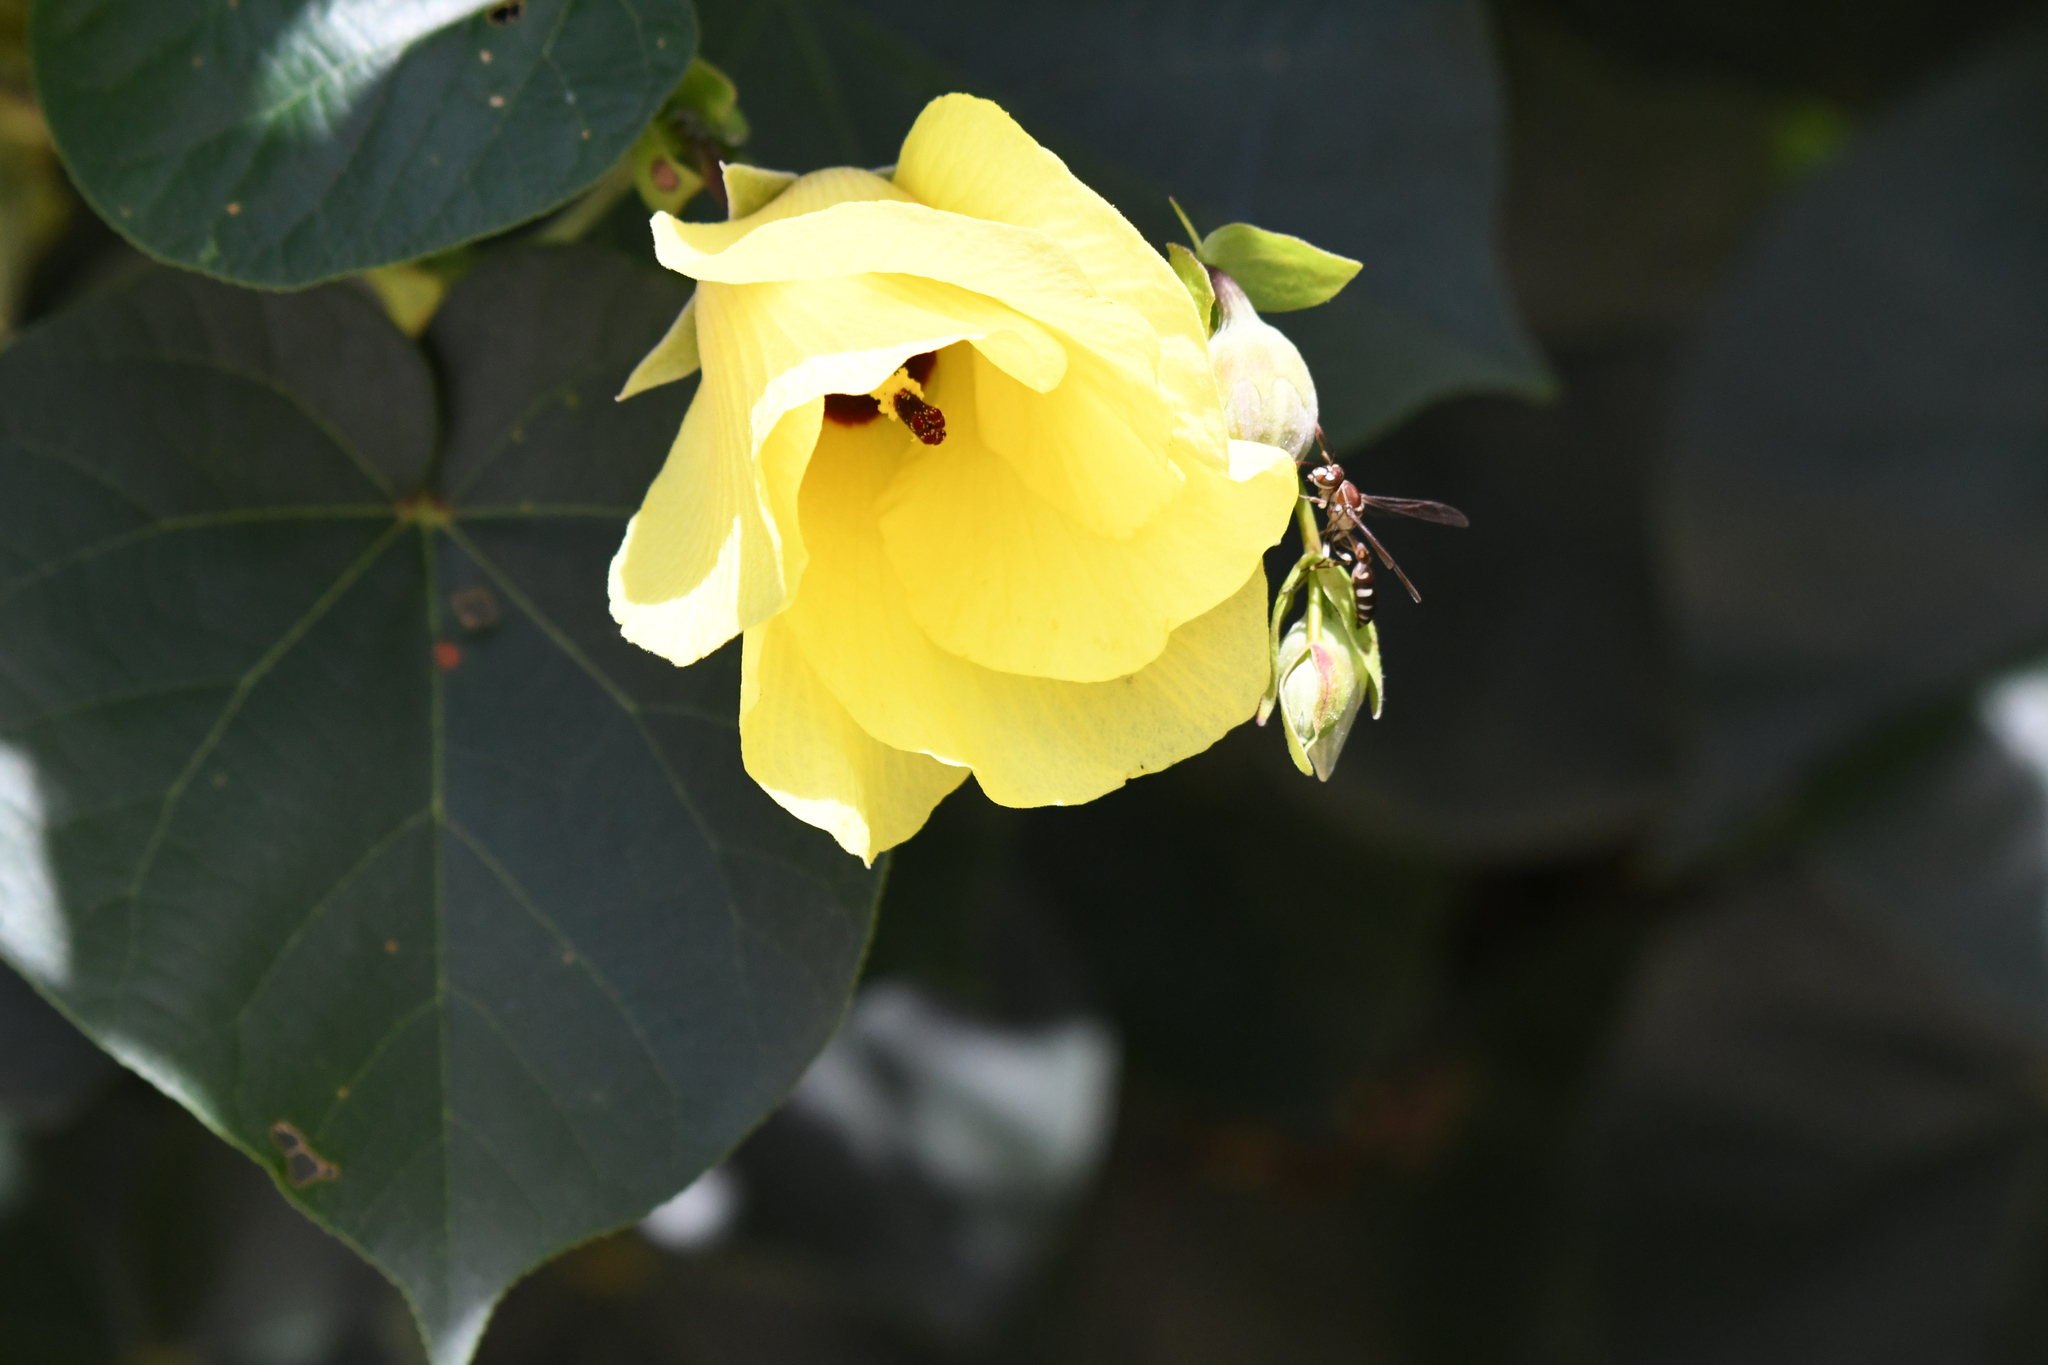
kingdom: Animalia
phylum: Arthropoda
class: Insecta
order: Hymenoptera
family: Vespidae
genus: Parapolybia
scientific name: Parapolybia nodosa
